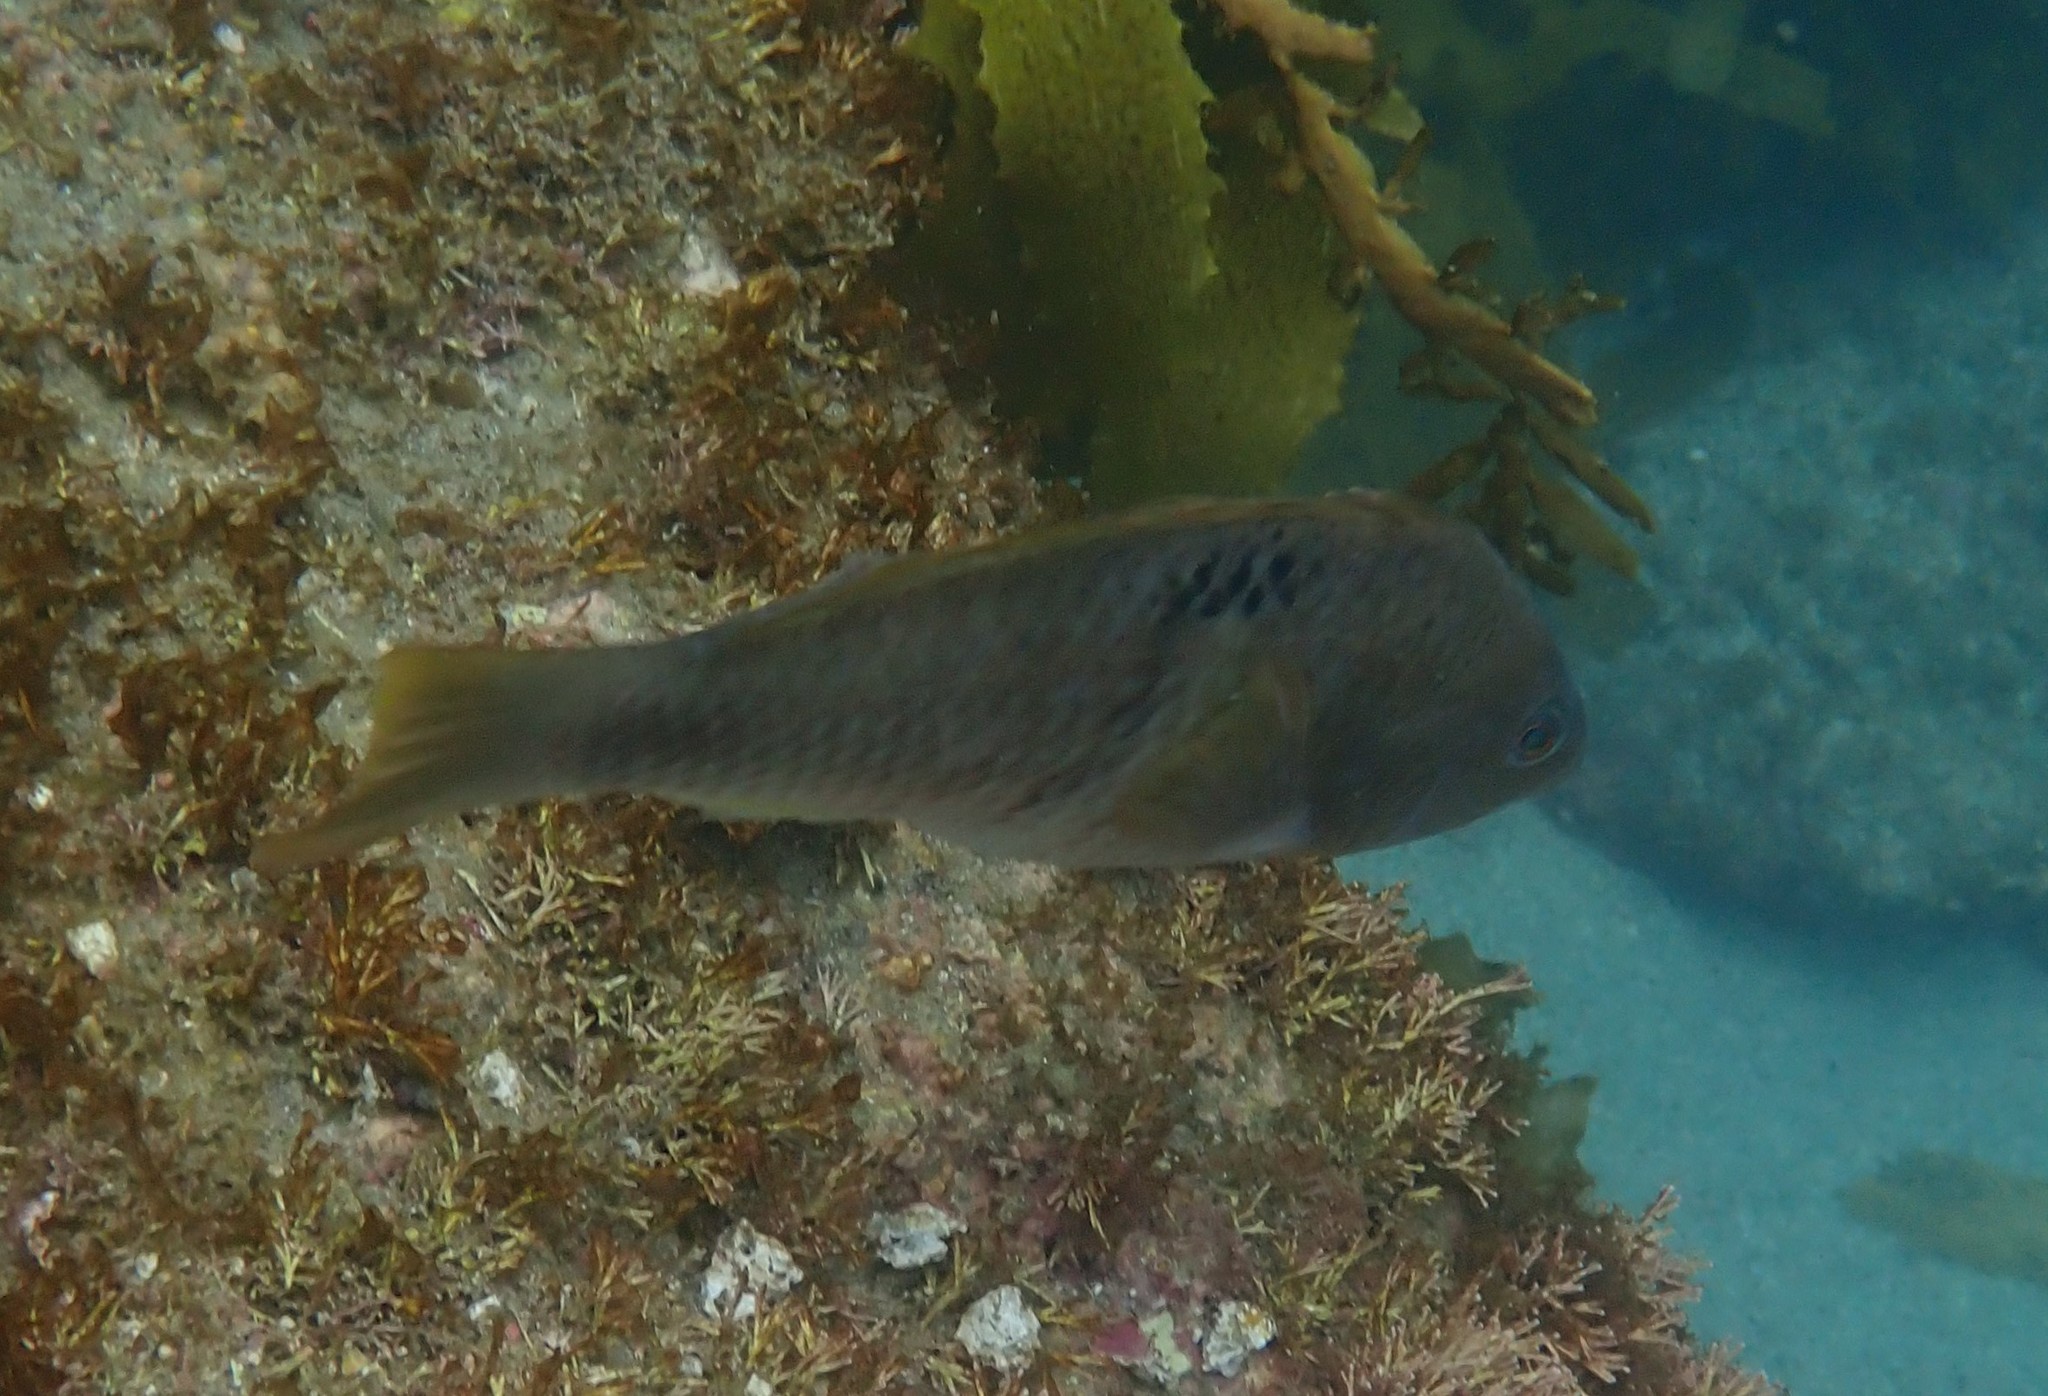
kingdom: Animalia
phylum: Chordata
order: Perciformes
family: Labridae
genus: Notolabrus
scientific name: Notolabrus celidotus
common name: Spotty
